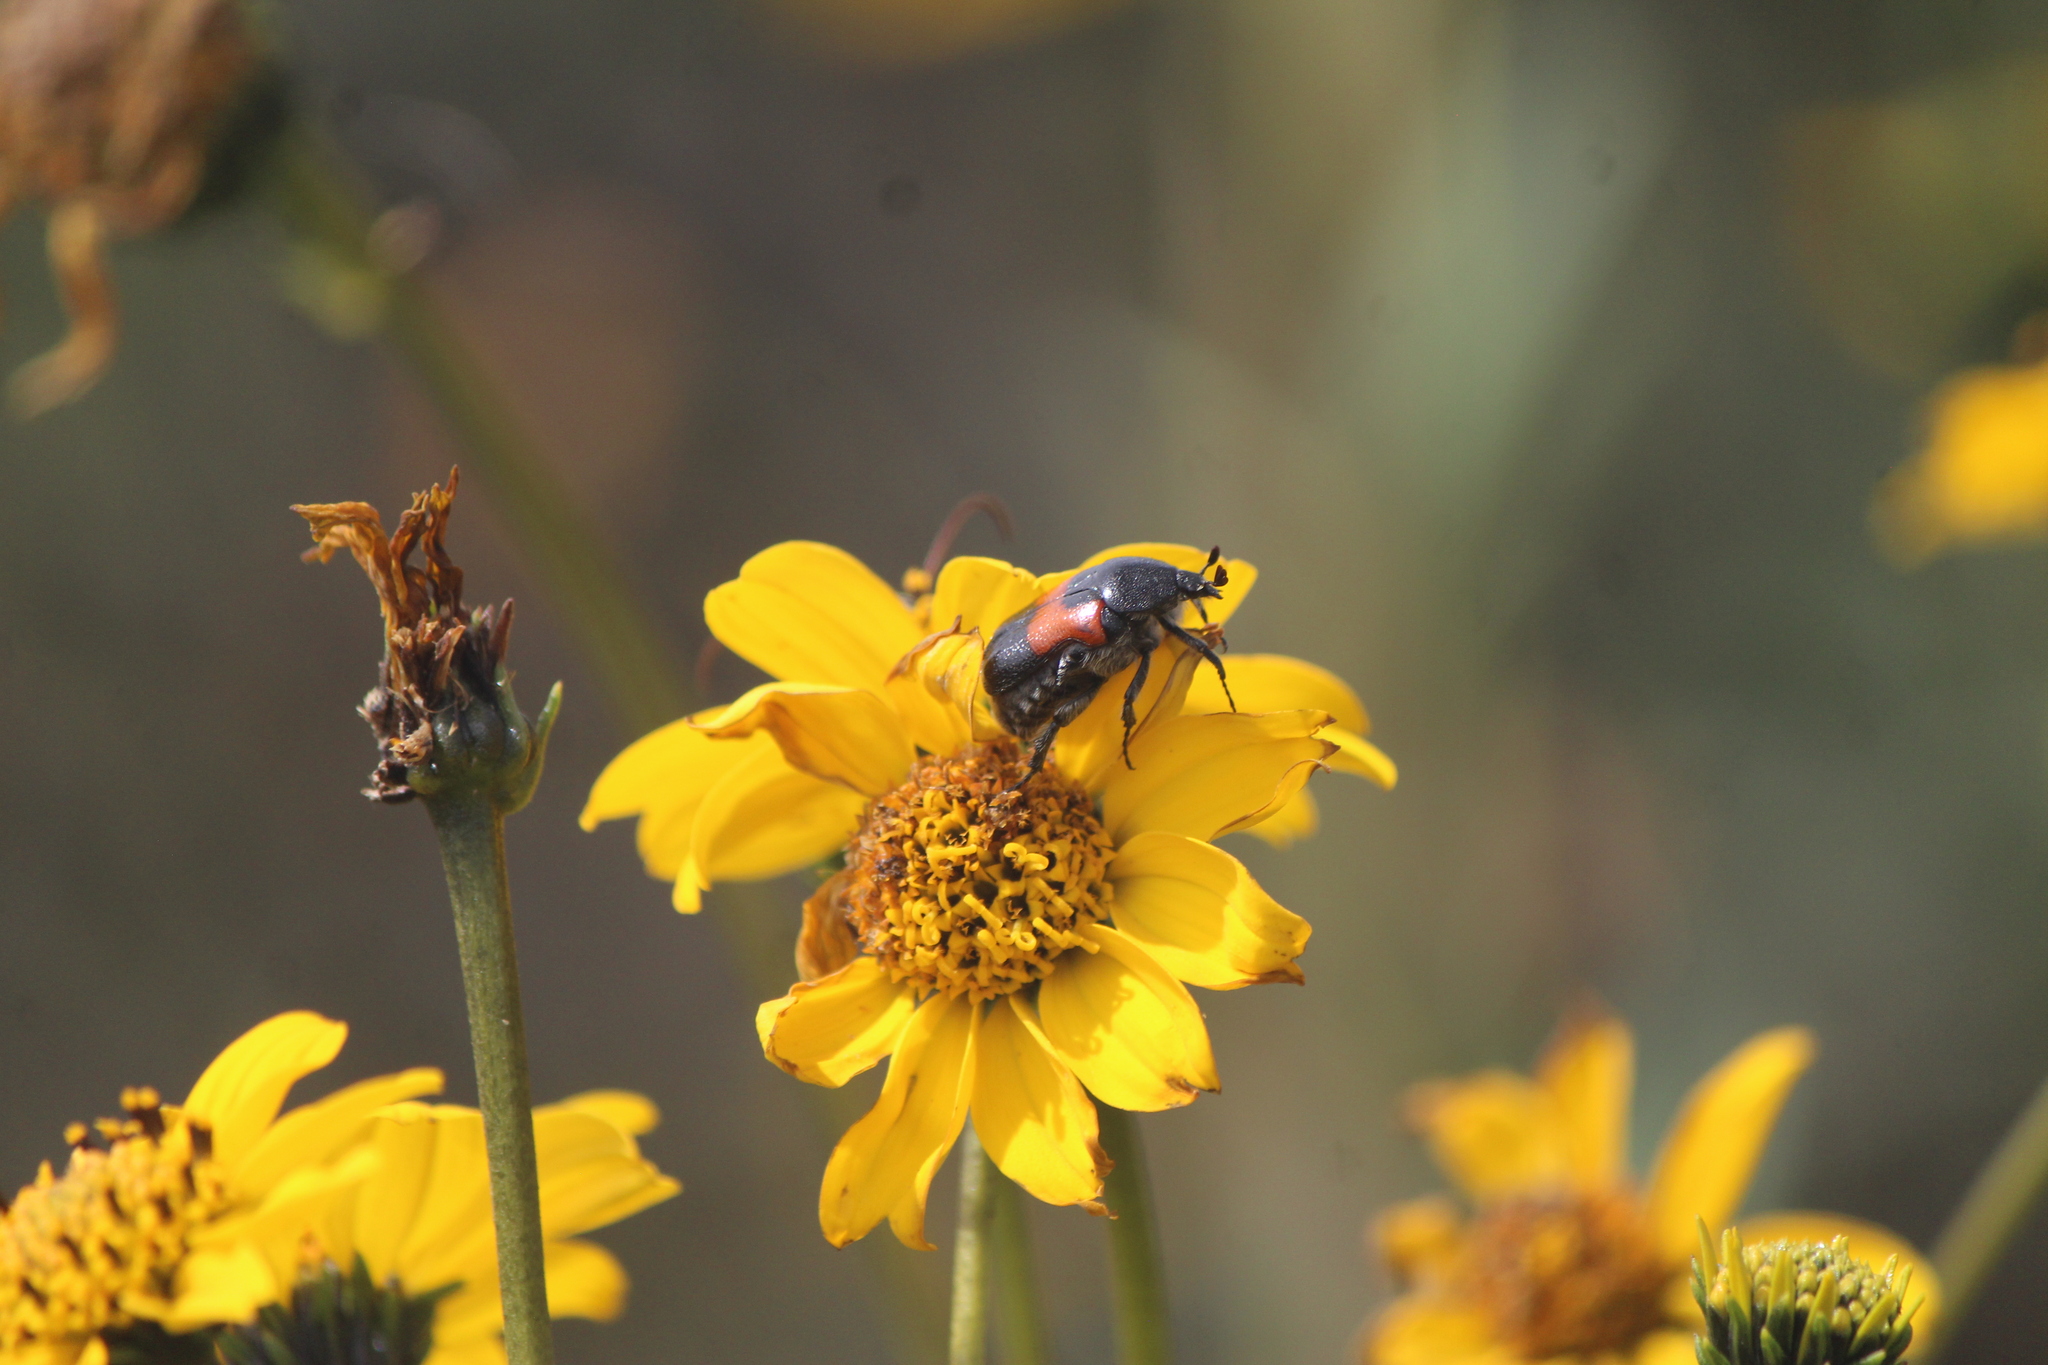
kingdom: Animalia
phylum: Arthropoda
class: Insecta
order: Coleoptera
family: Scarabaeidae
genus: Euphoria
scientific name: Euphoria dimidiata
